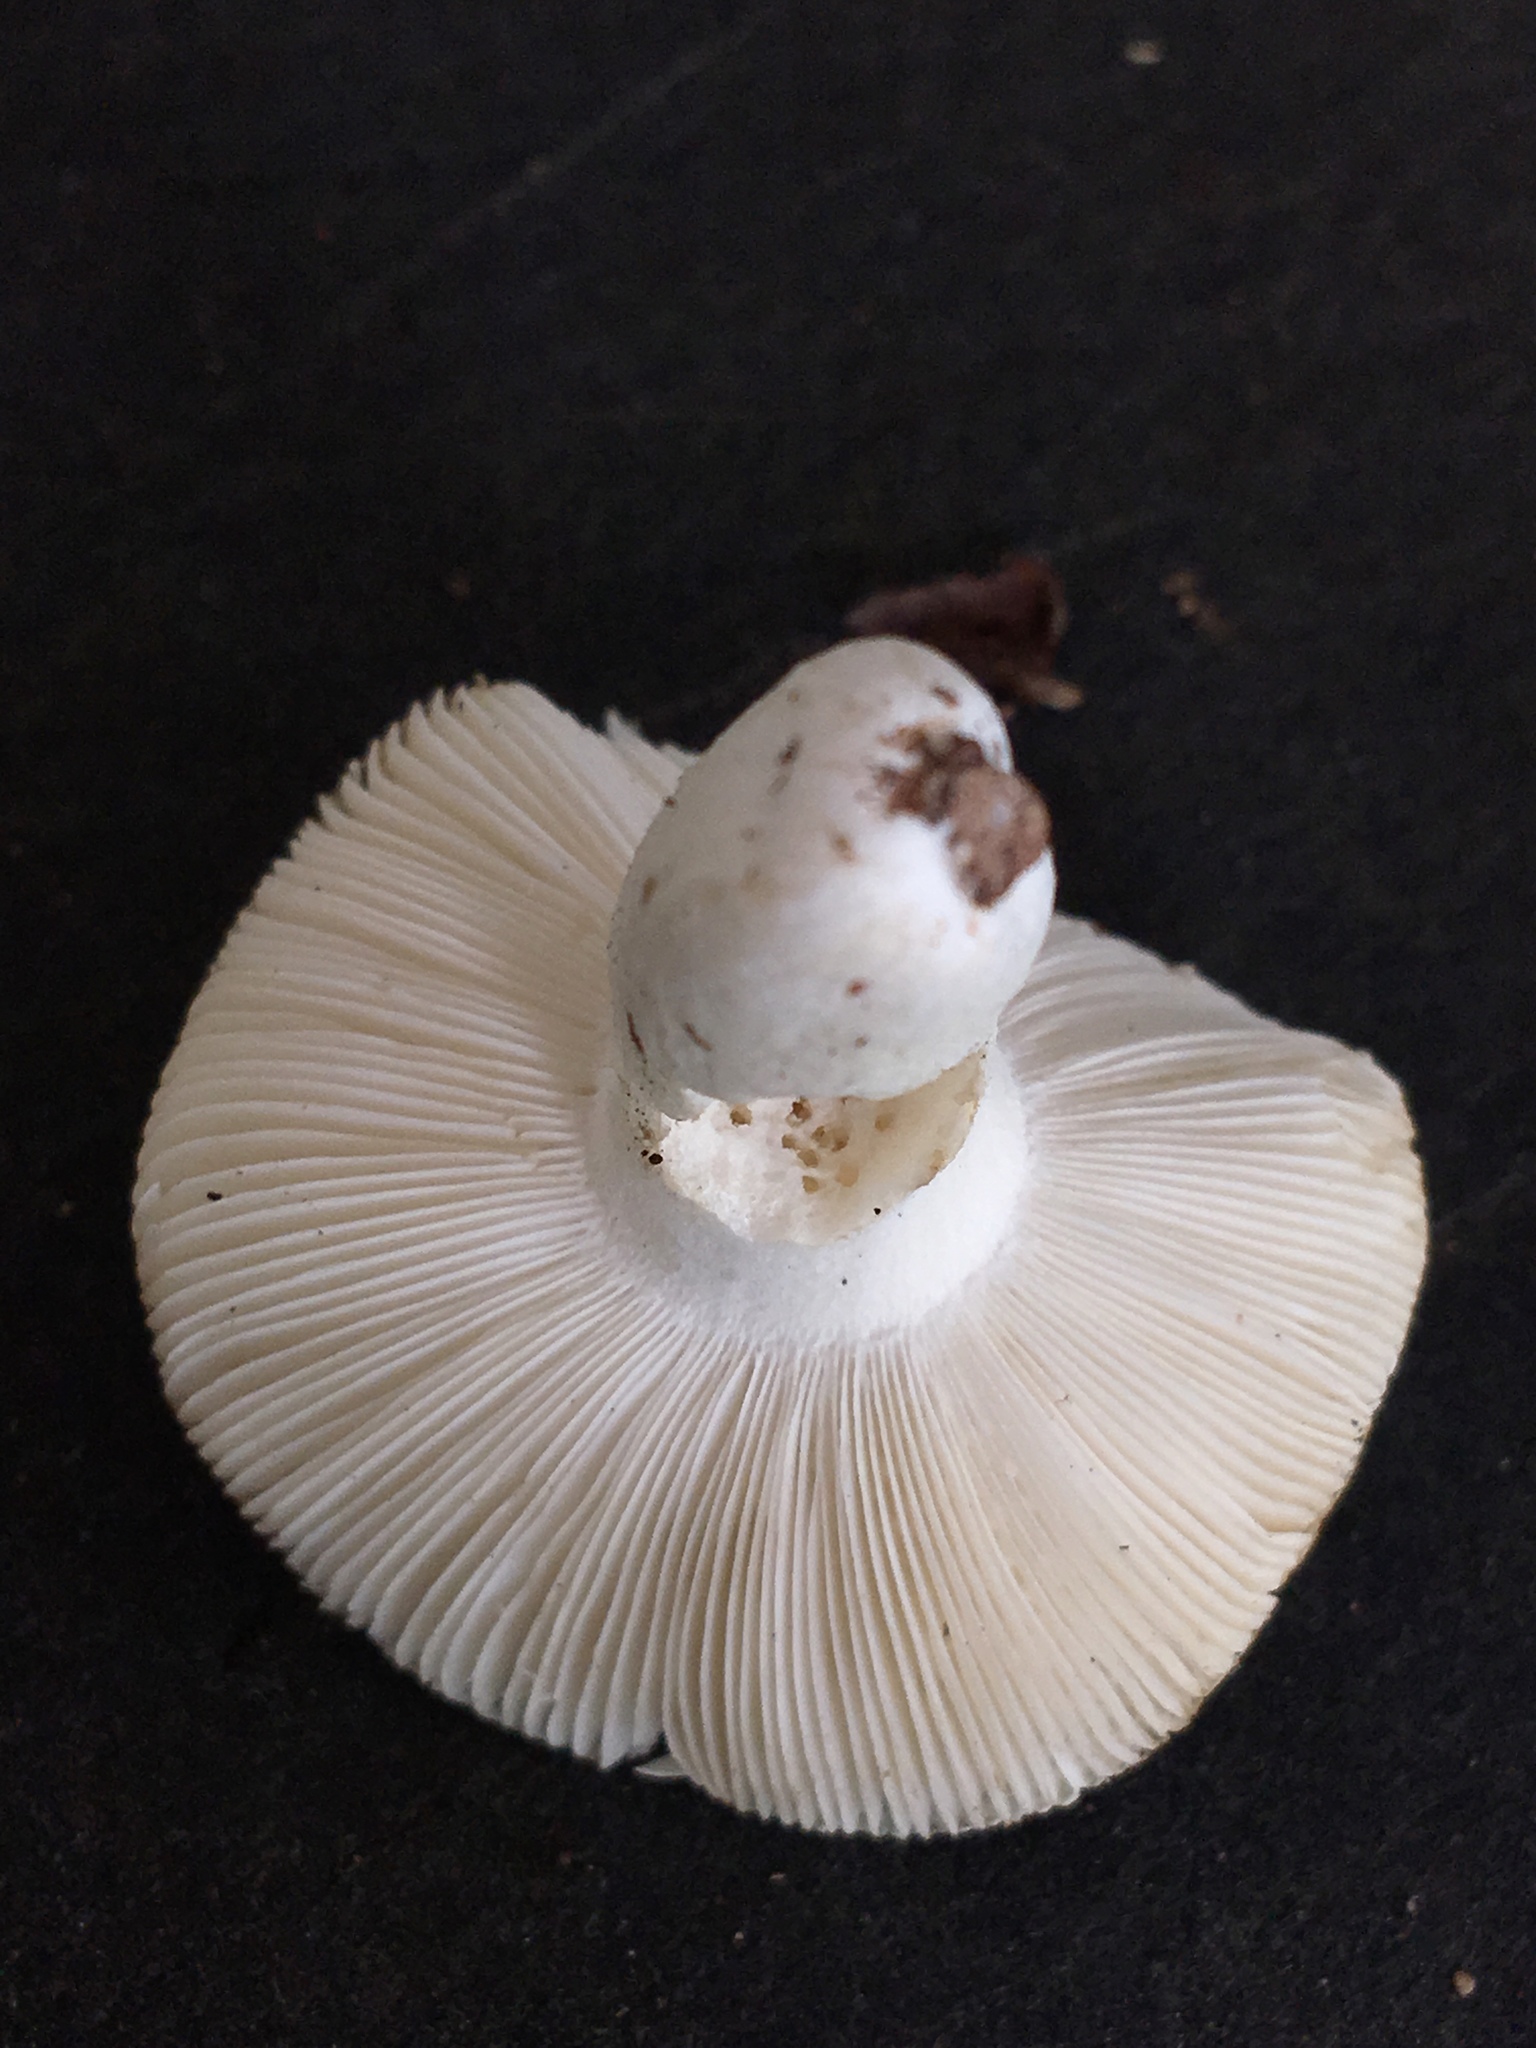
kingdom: Fungi
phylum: Basidiomycota
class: Agaricomycetes
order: Russulales
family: Russulaceae
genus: Russula
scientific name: Russula
